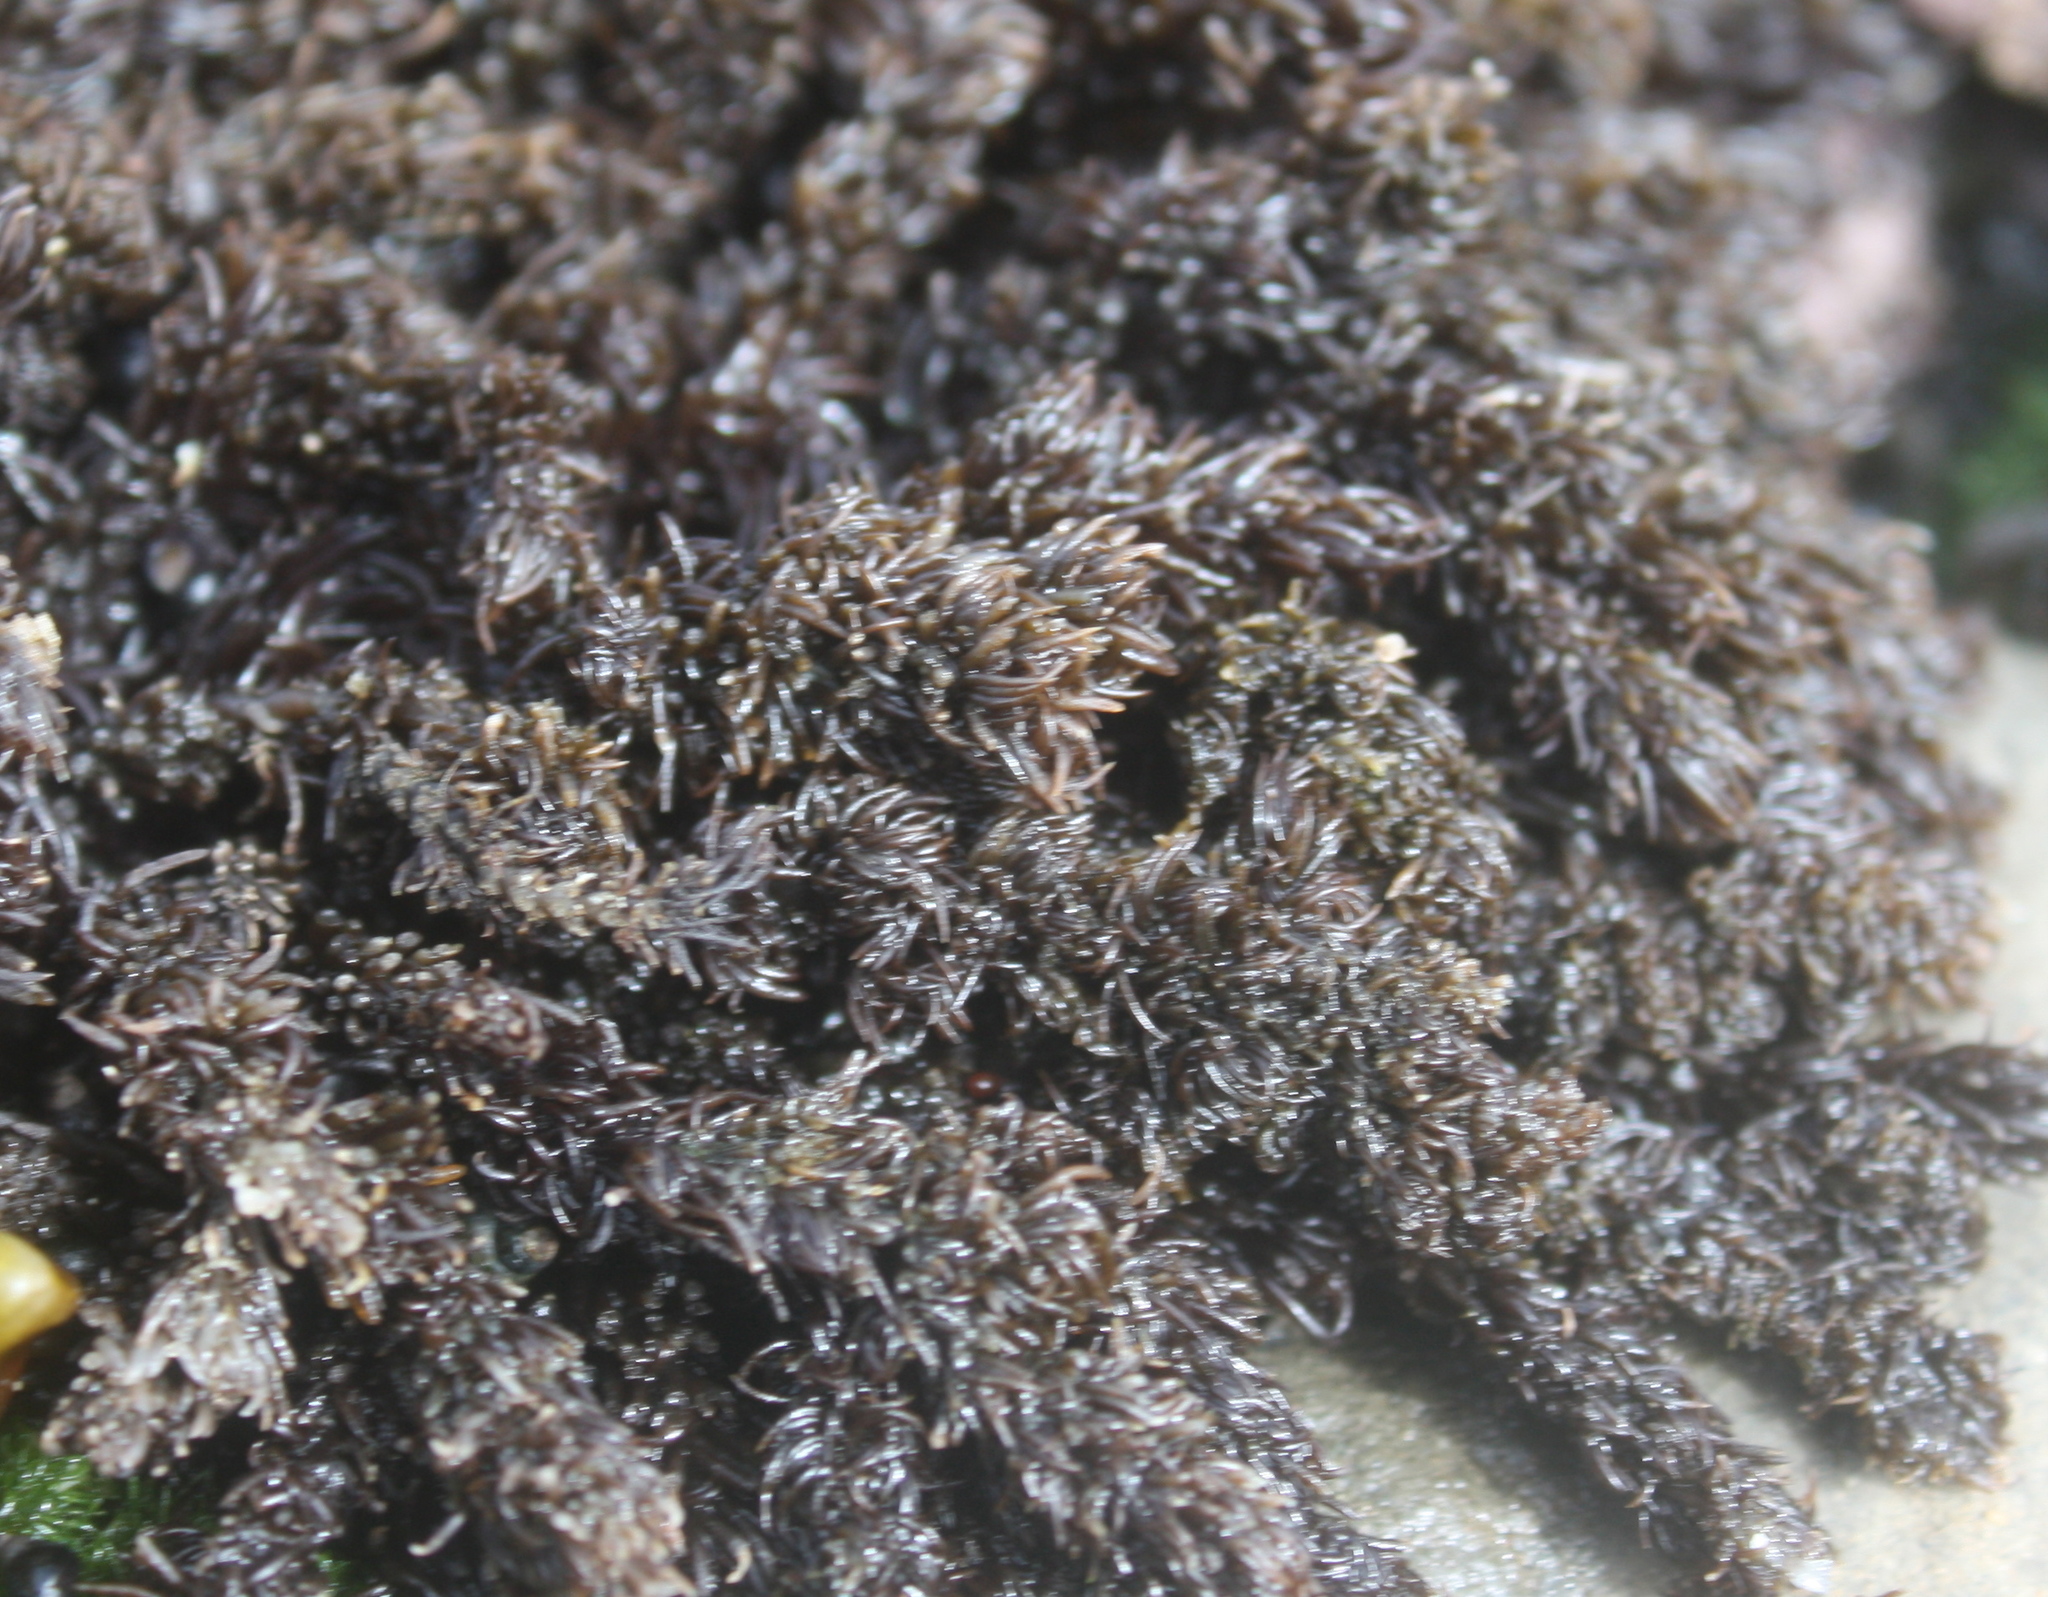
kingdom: Plantae
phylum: Rhodophyta
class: Florideophyceae
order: Ceramiales
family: Rhodomelaceae
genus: Neorhodomela
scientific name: Neorhodomela larix
